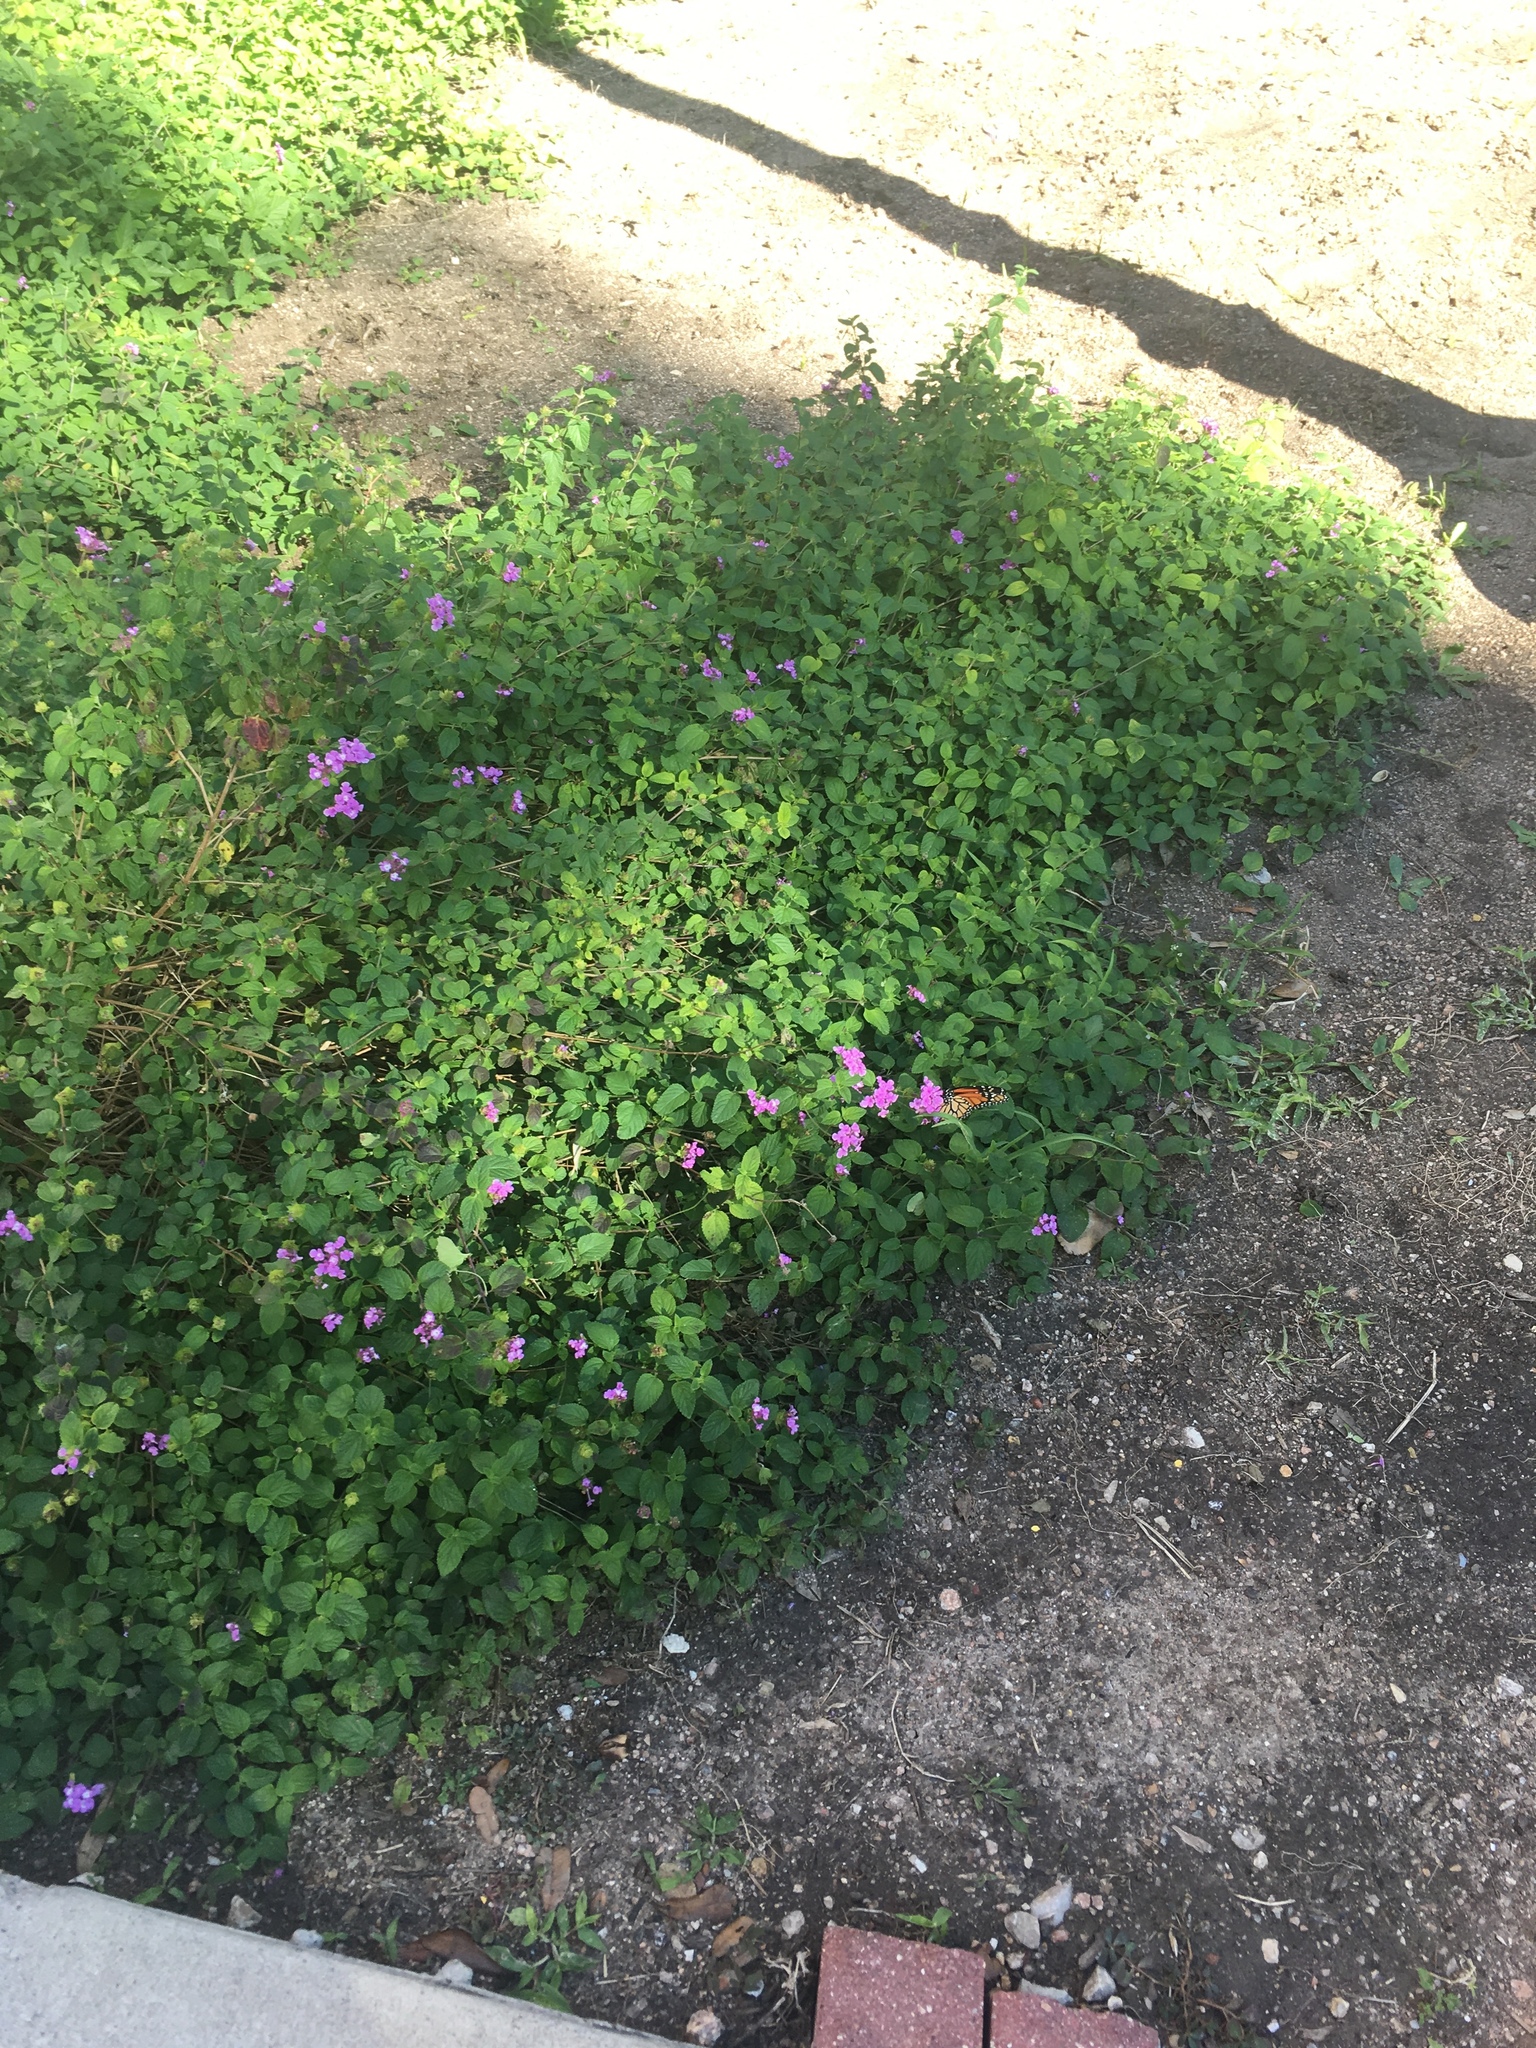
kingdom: Animalia
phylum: Arthropoda
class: Insecta
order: Lepidoptera
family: Nymphalidae
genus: Danaus
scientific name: Danaus plexippus
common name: Monarch
